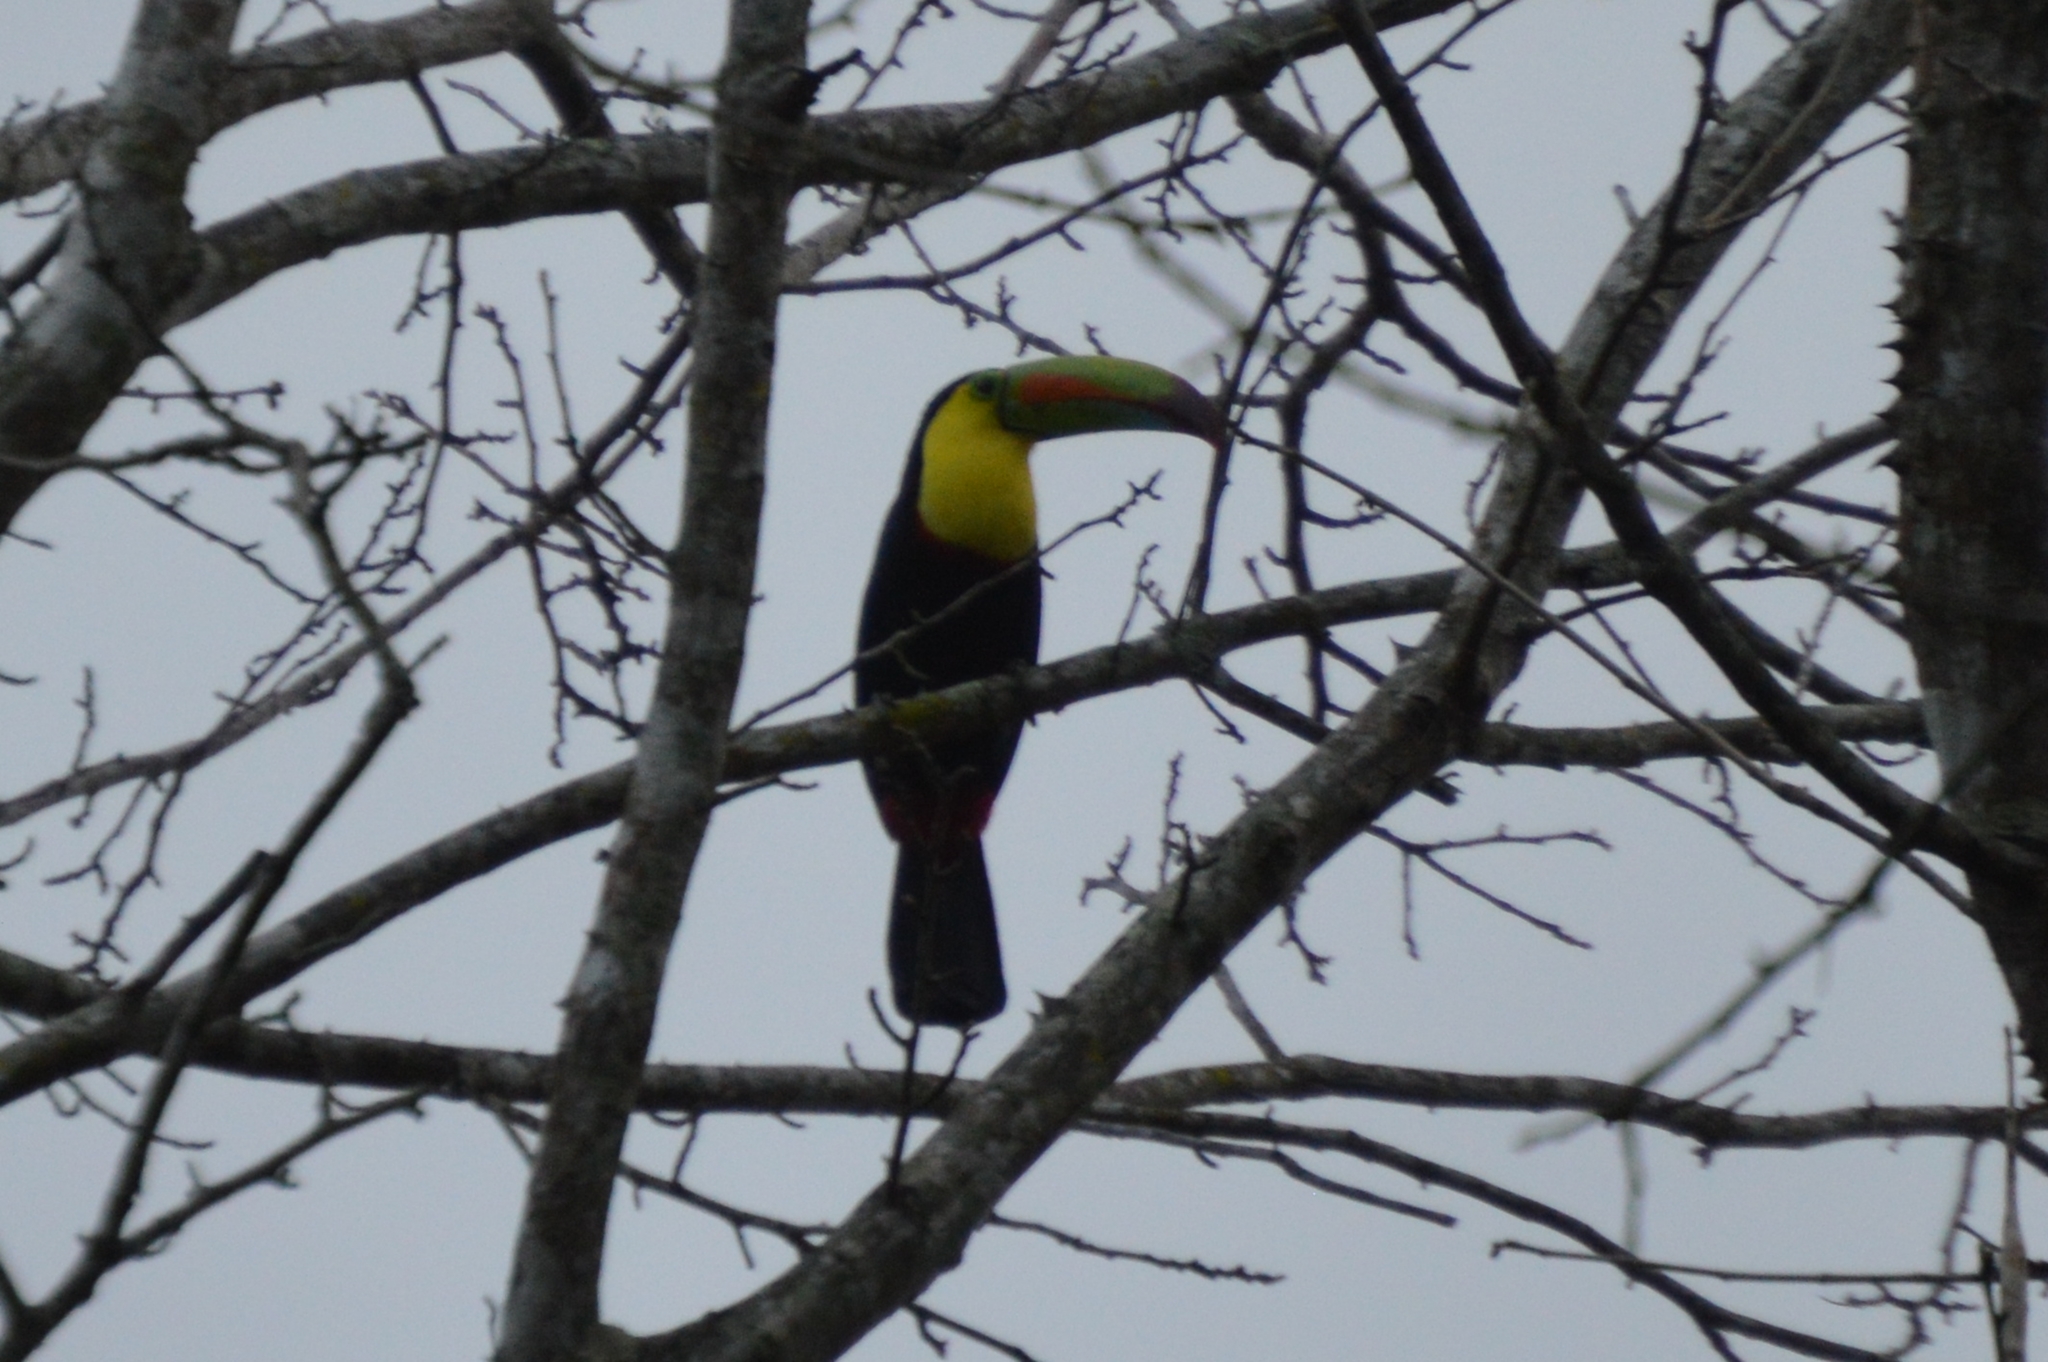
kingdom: Animalia
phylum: Chordata
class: Aves
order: Piciformes
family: Ramphastidae
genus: Ramphastos
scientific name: Ramphastos sulfuratus
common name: Keel-billed toucan
